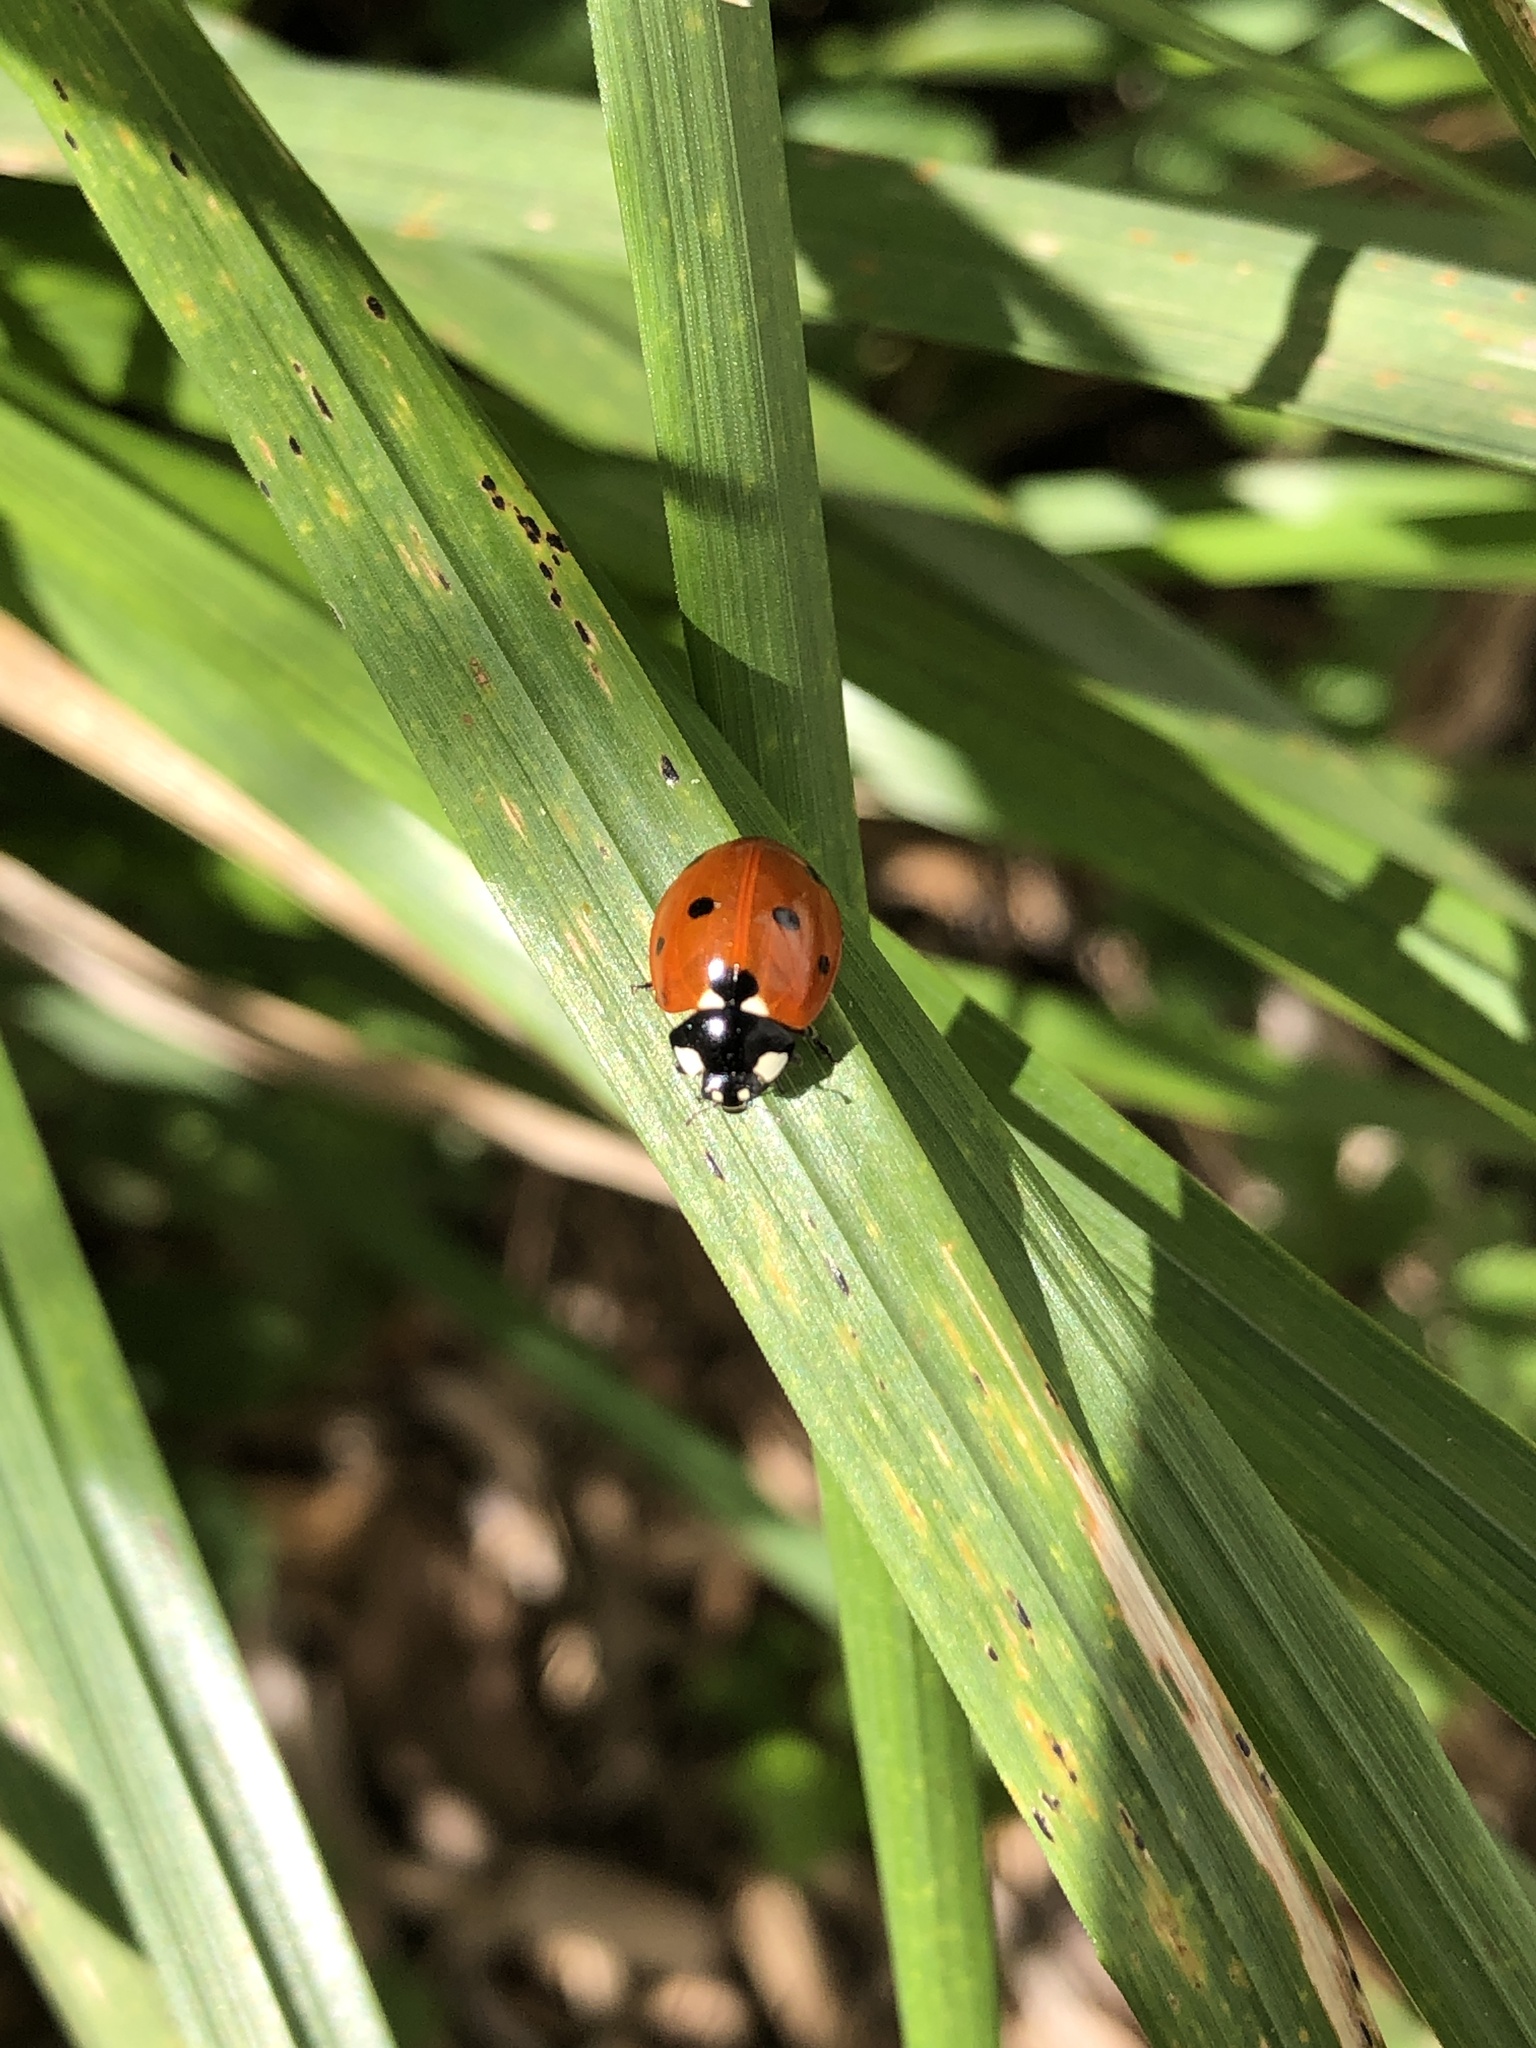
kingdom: Animalia
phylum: Arthropoda
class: Insecta
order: Coleoptera
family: Coccinellidae
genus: Coccinella
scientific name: Coccinella septempunctata
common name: Sevenspotted lady beetle
